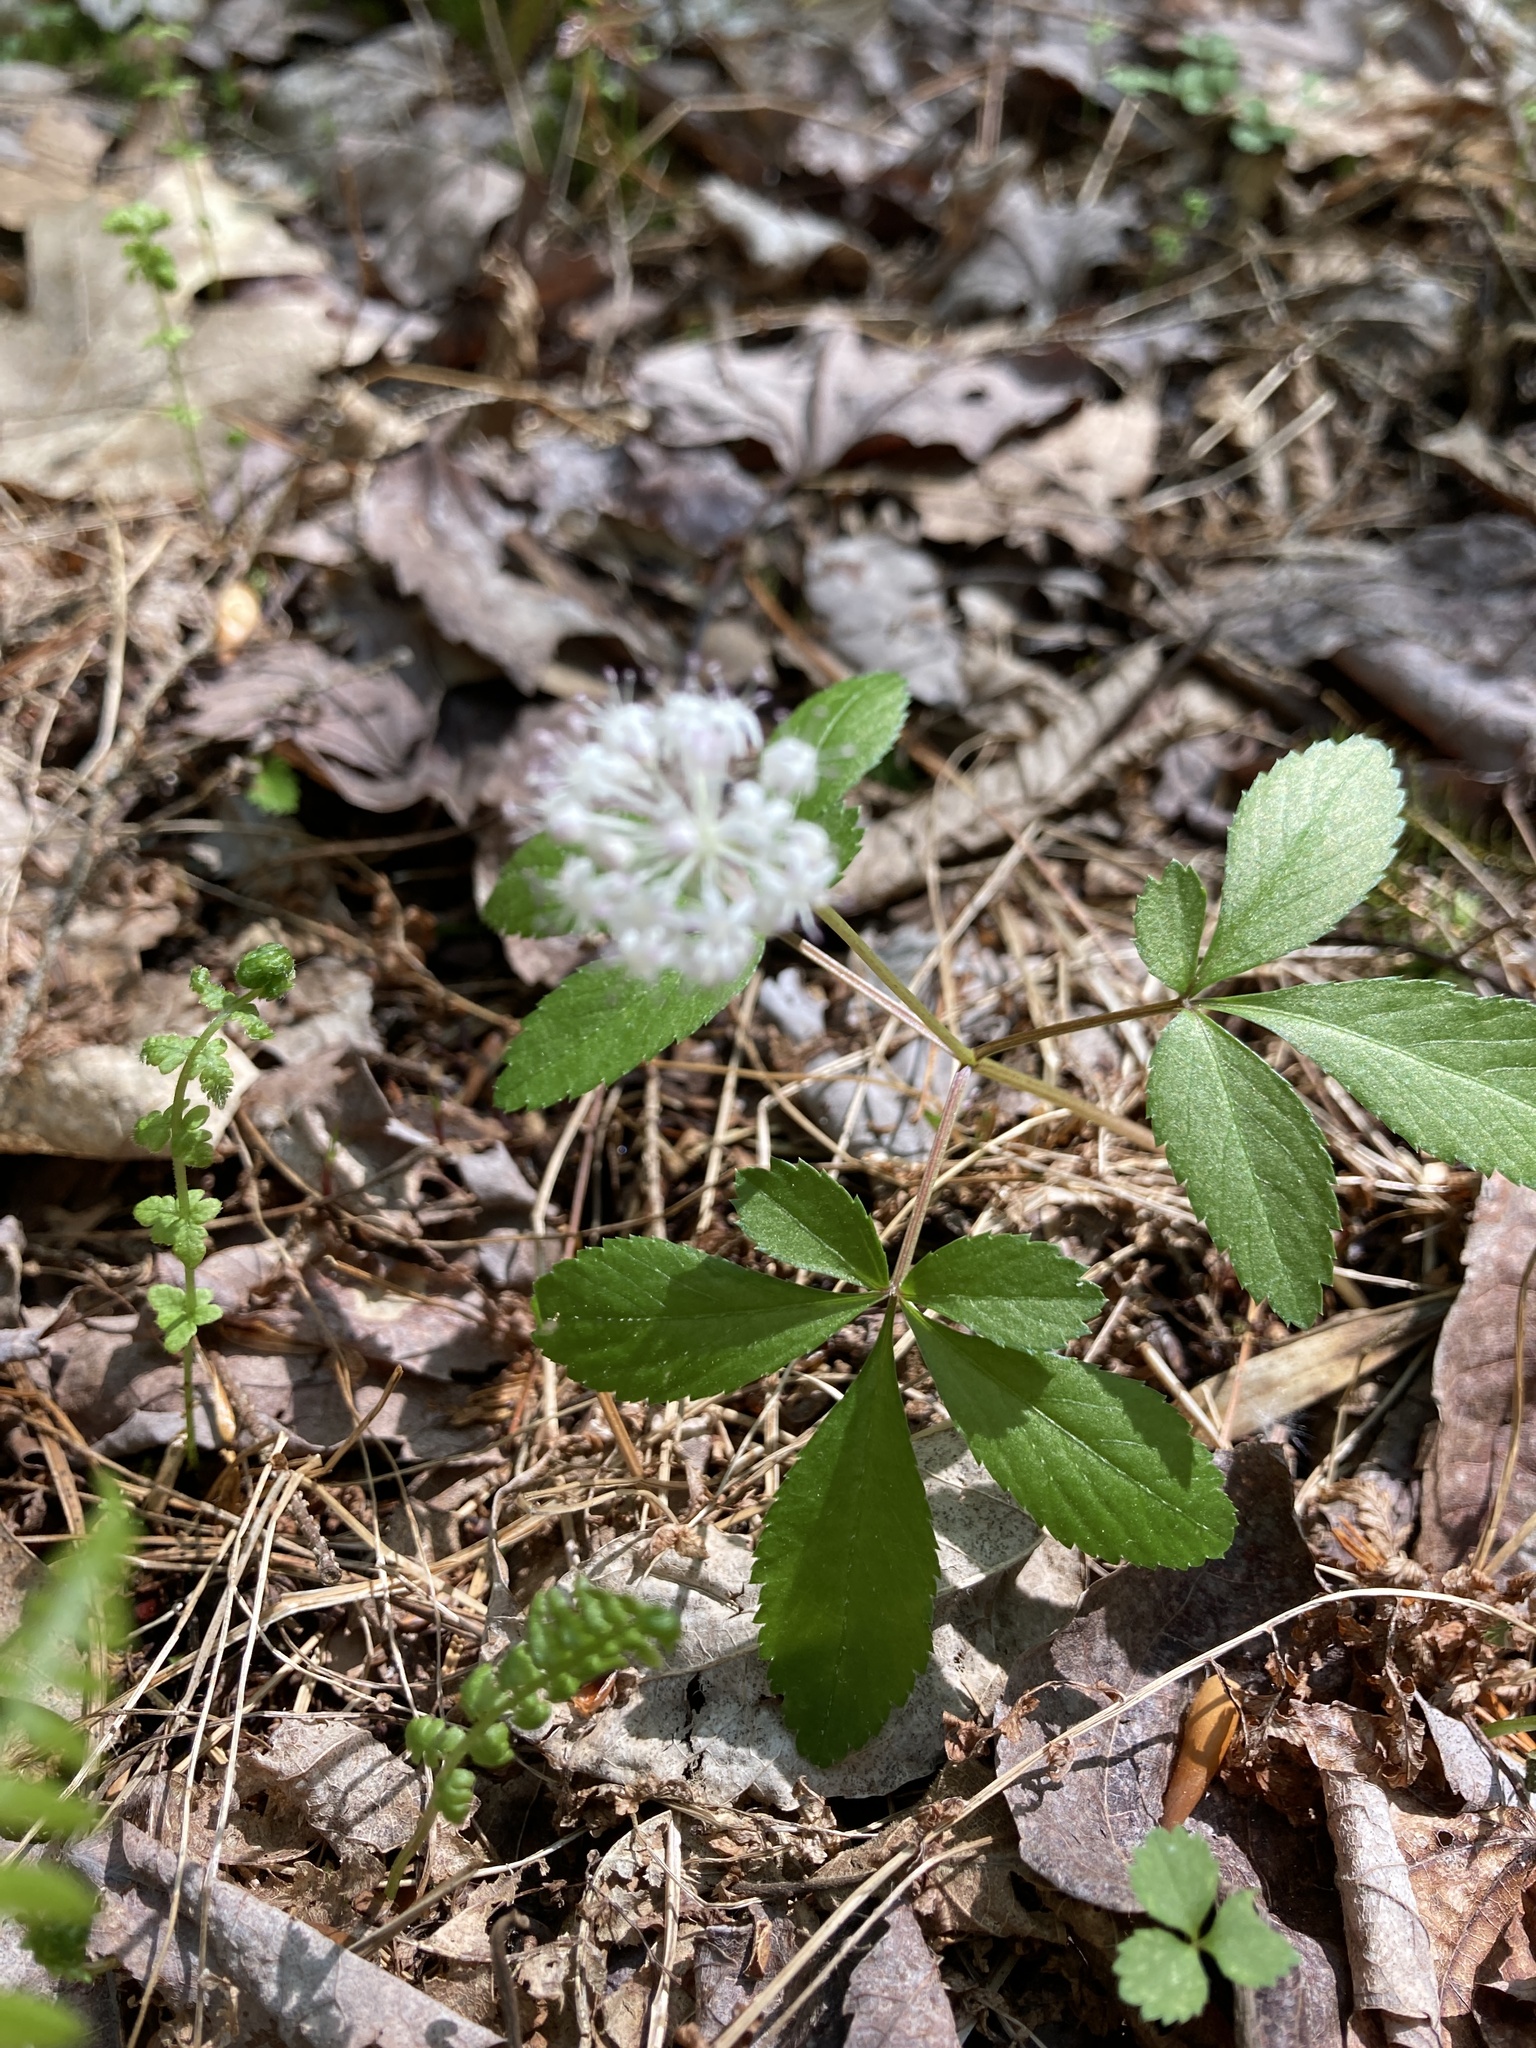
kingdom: Plantae
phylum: Tracheophyta
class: Magnoliopsida
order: Apiales
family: Araliaceae
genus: Panax
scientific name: Panax trifolius
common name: Dwarf ginseng
